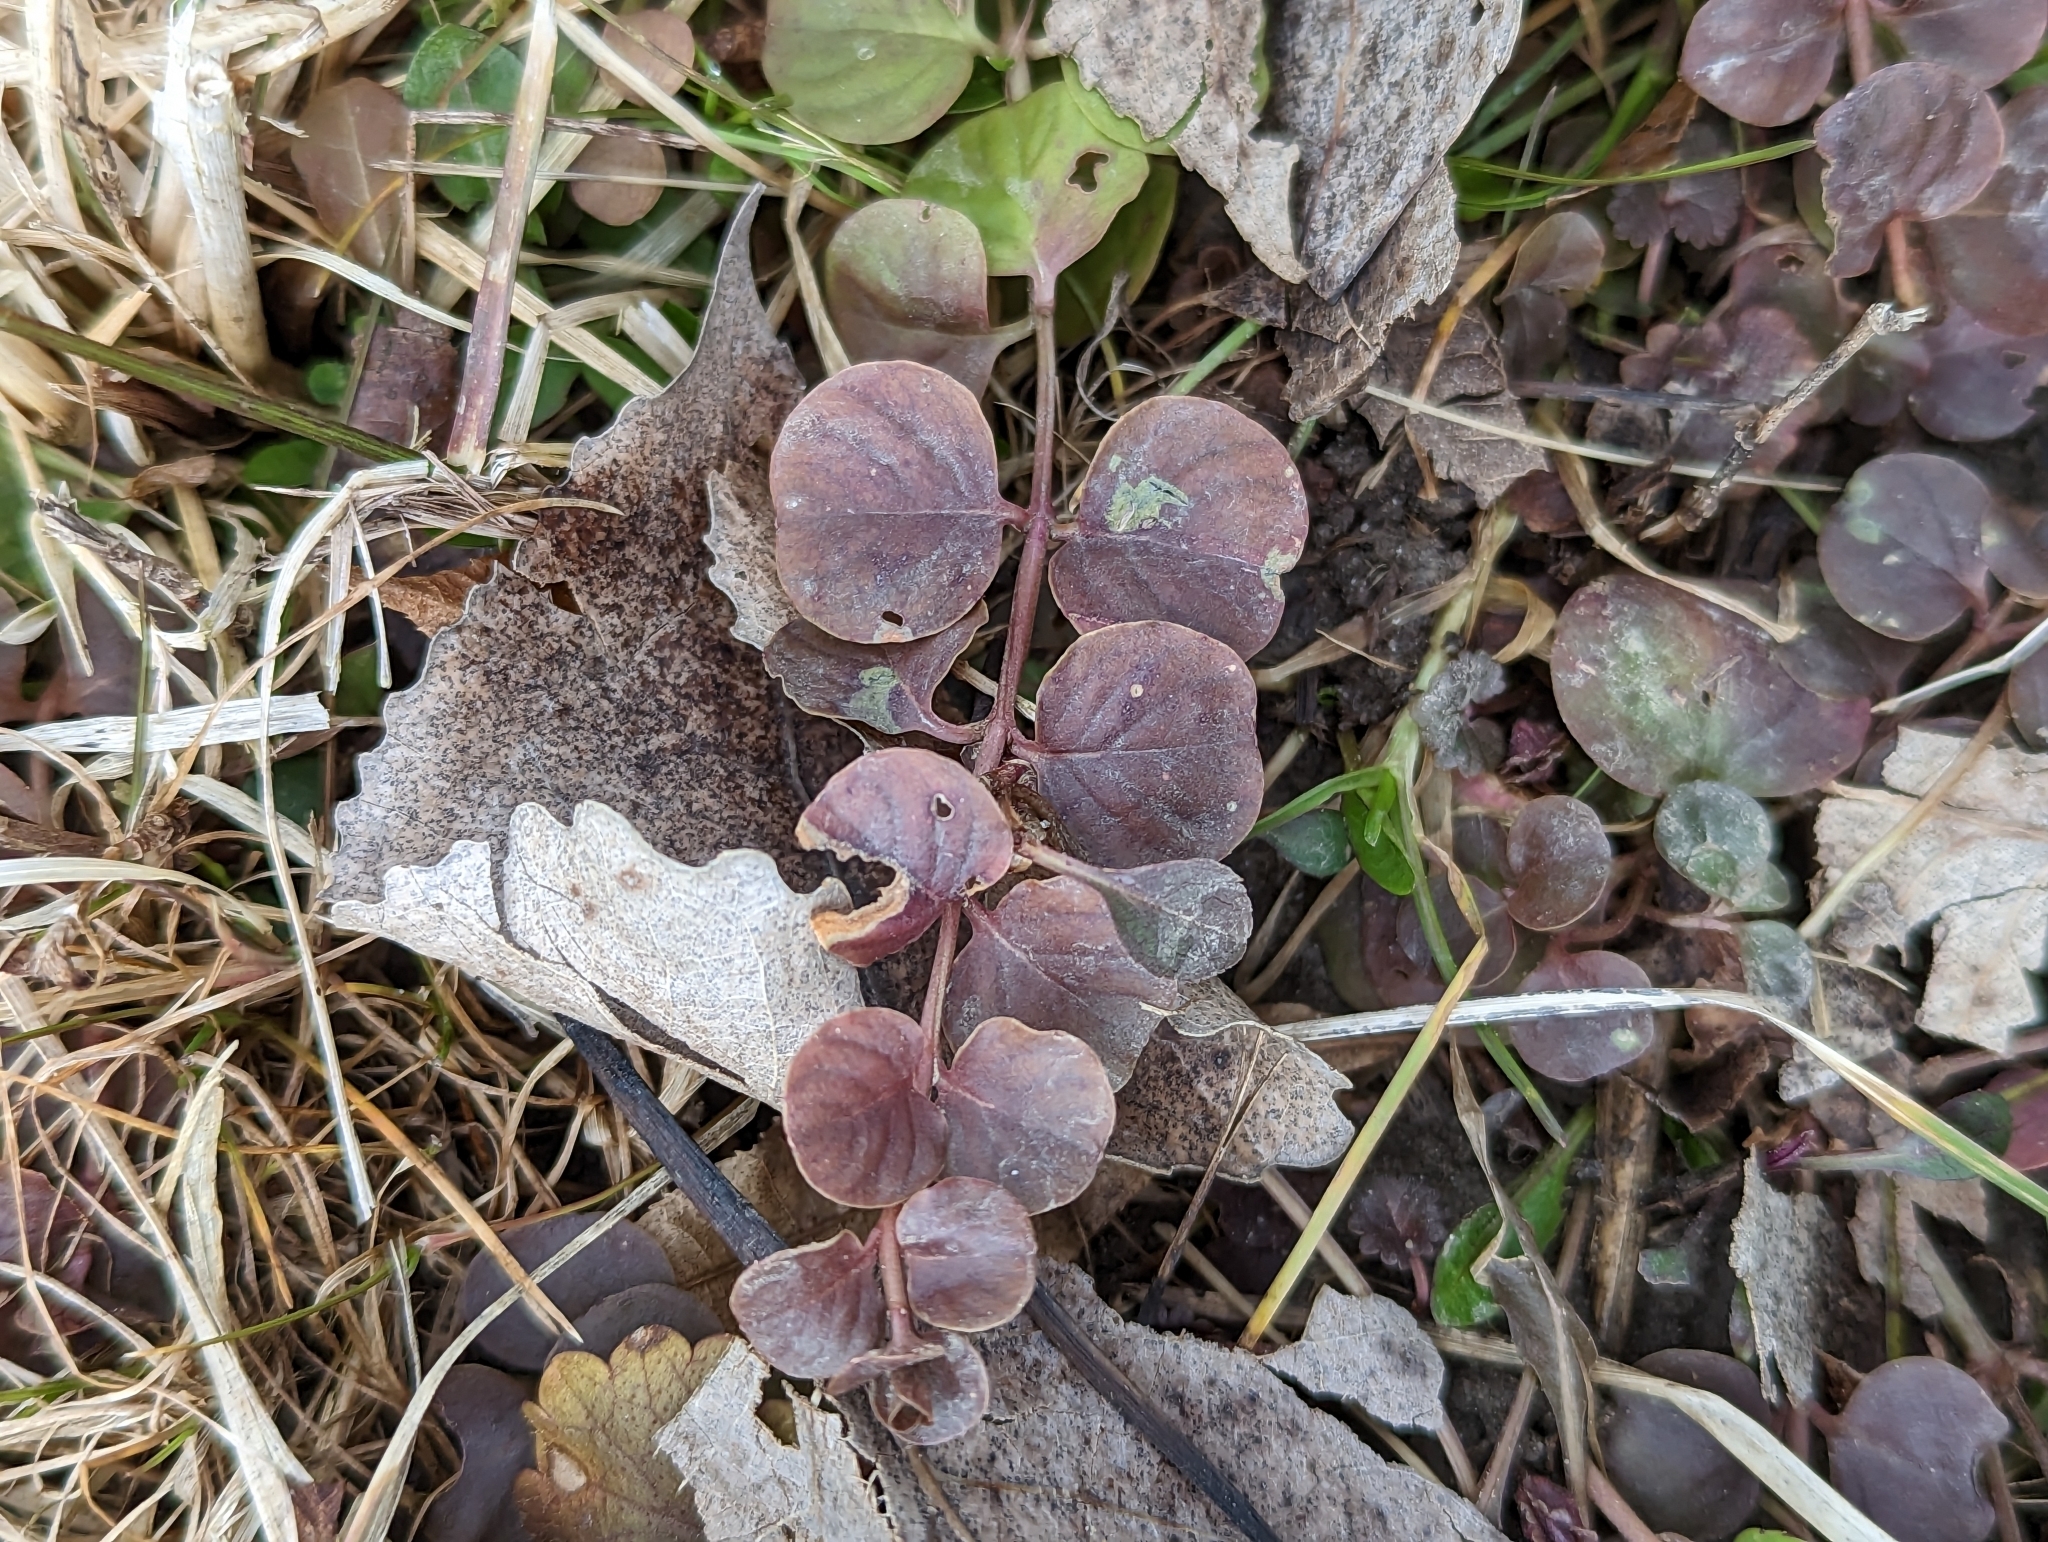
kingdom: Plantae
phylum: Tracheophyta
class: Magnoliopsida
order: Ericales
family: Primulaceae
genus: Lysimachia
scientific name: Lysimachia nummularia
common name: Moneywort
